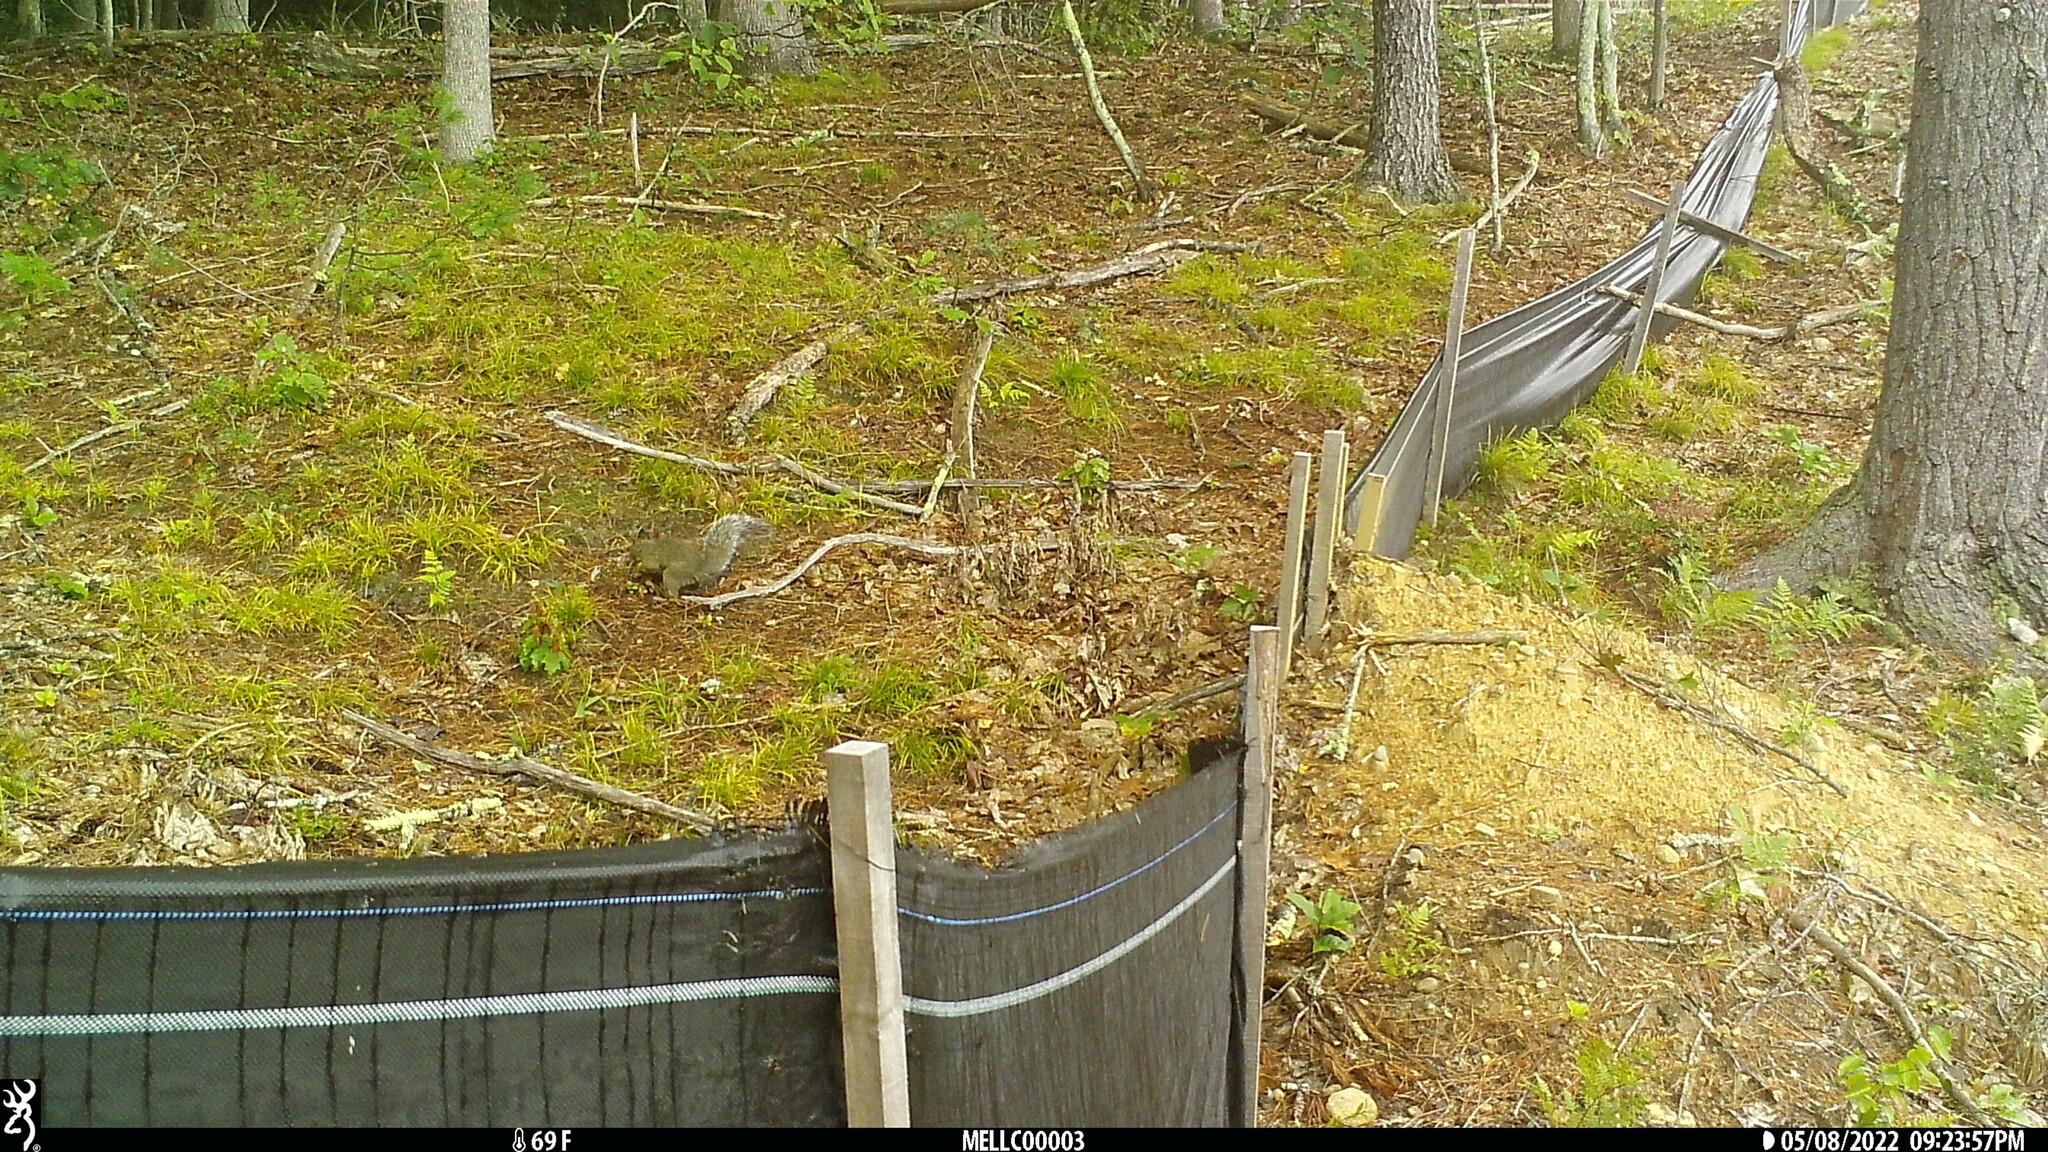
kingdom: Animalia
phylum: Chordata
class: Mammalia
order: Rodentia
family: Sciuridae
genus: Sciurus
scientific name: Sciurus carolinensis
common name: Eastern gray squirrel
